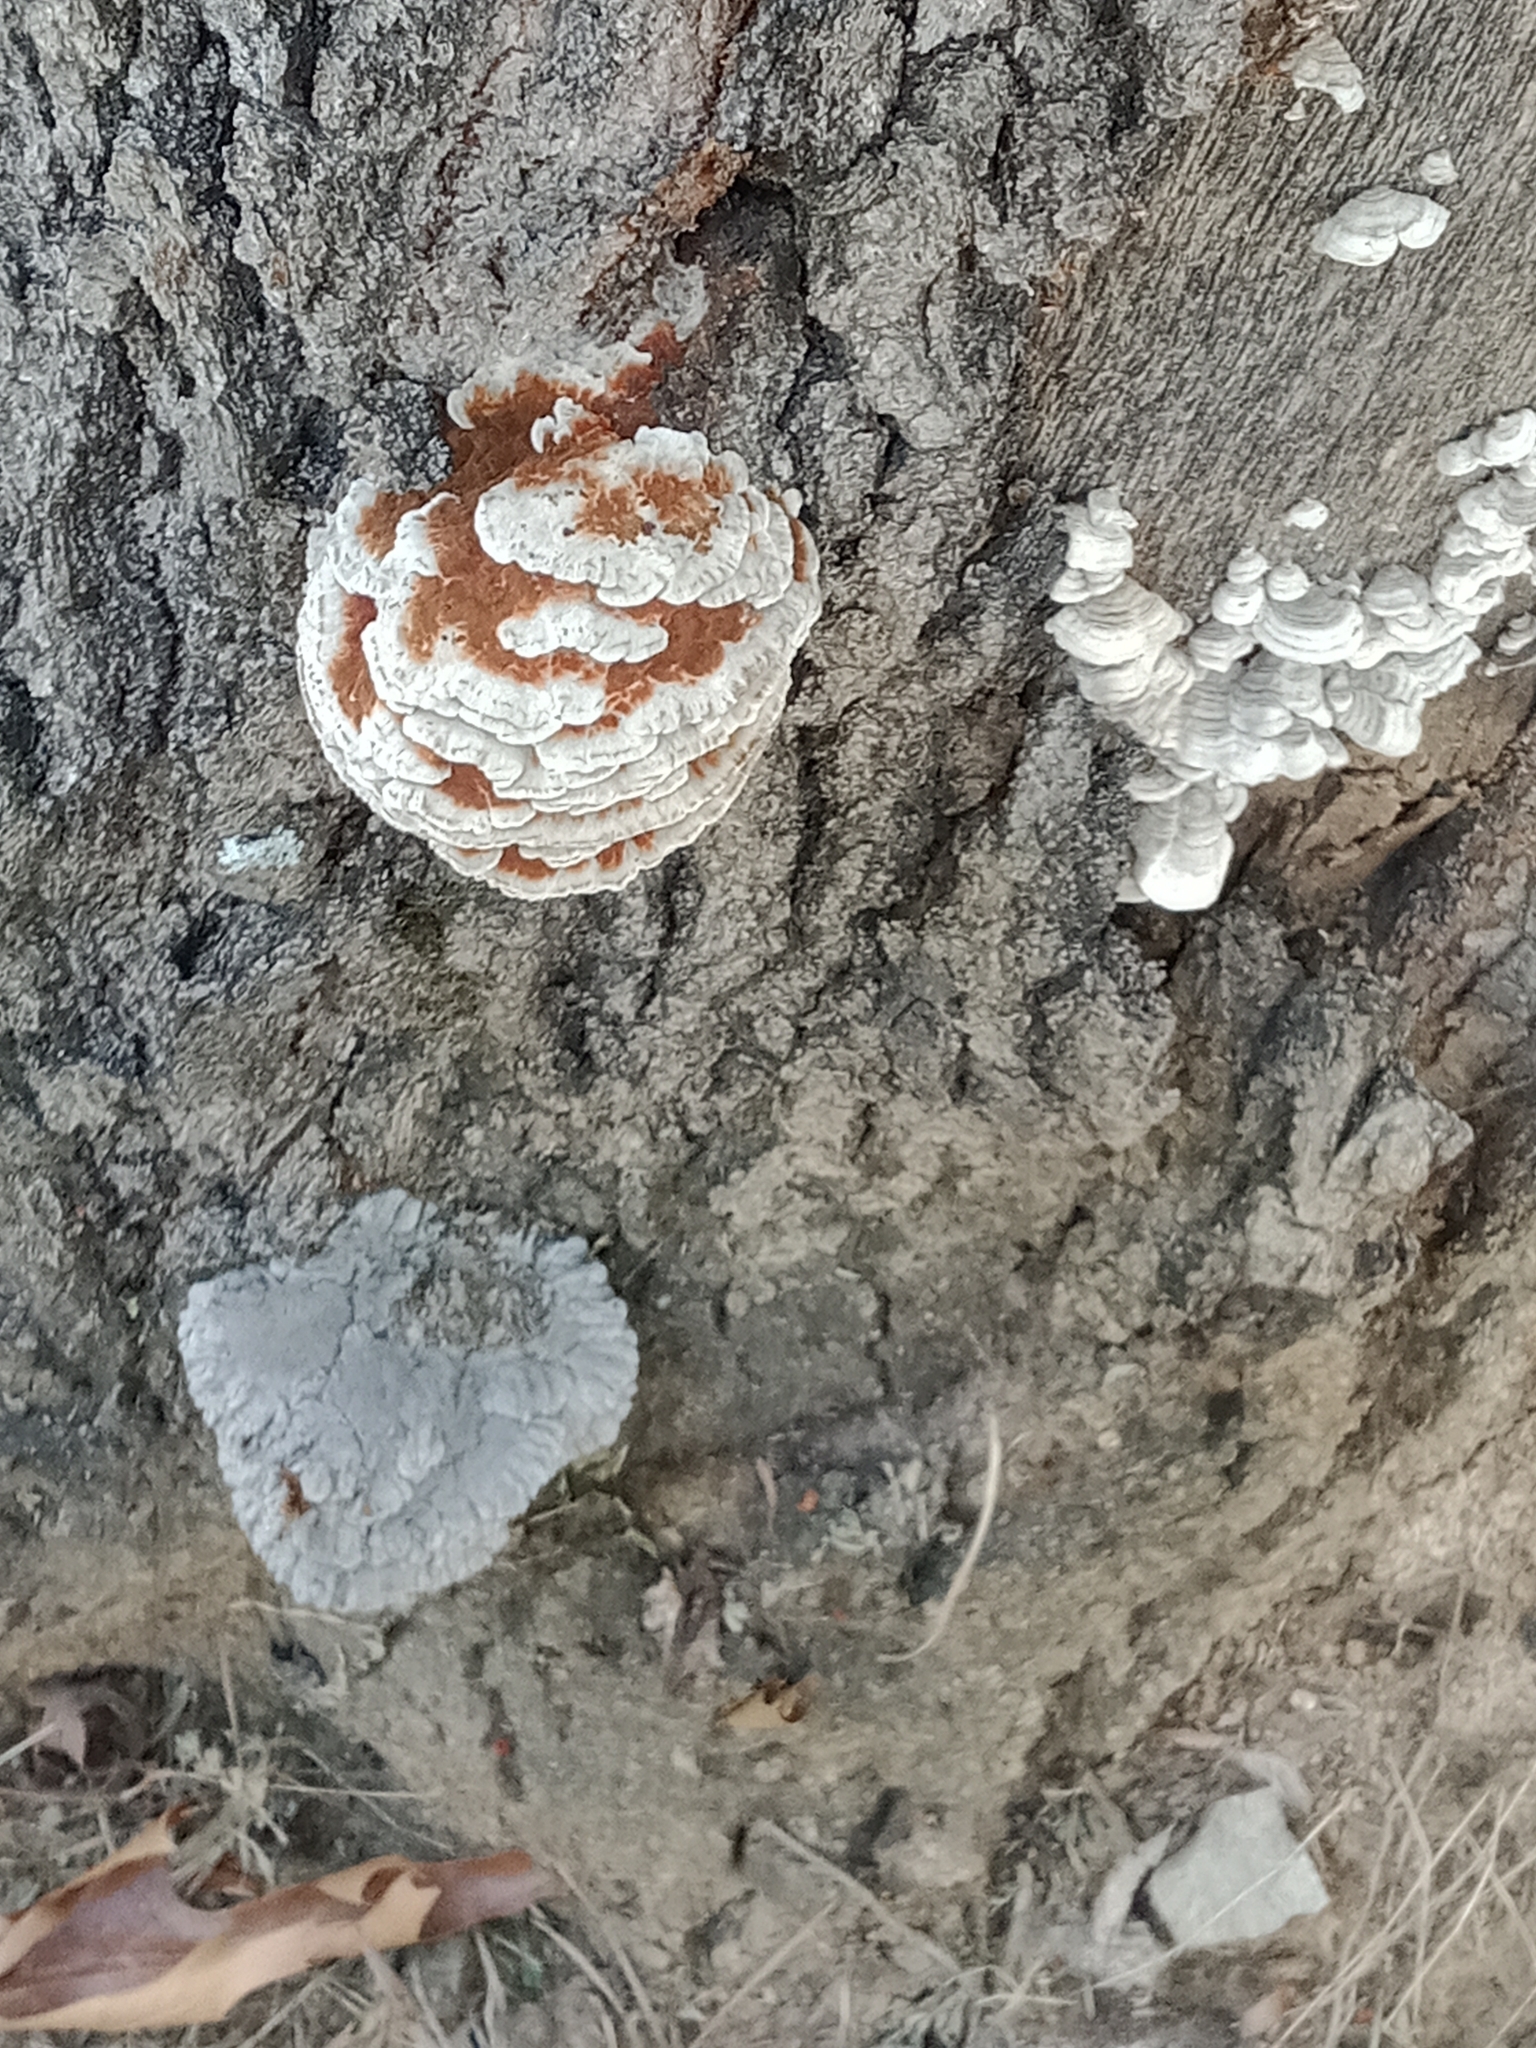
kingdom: Fungi
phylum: Basidiomycota
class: Agaricomycetes
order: Polyporales
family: Polyporaceae
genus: Globifomes
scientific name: Globifomes graveolens
